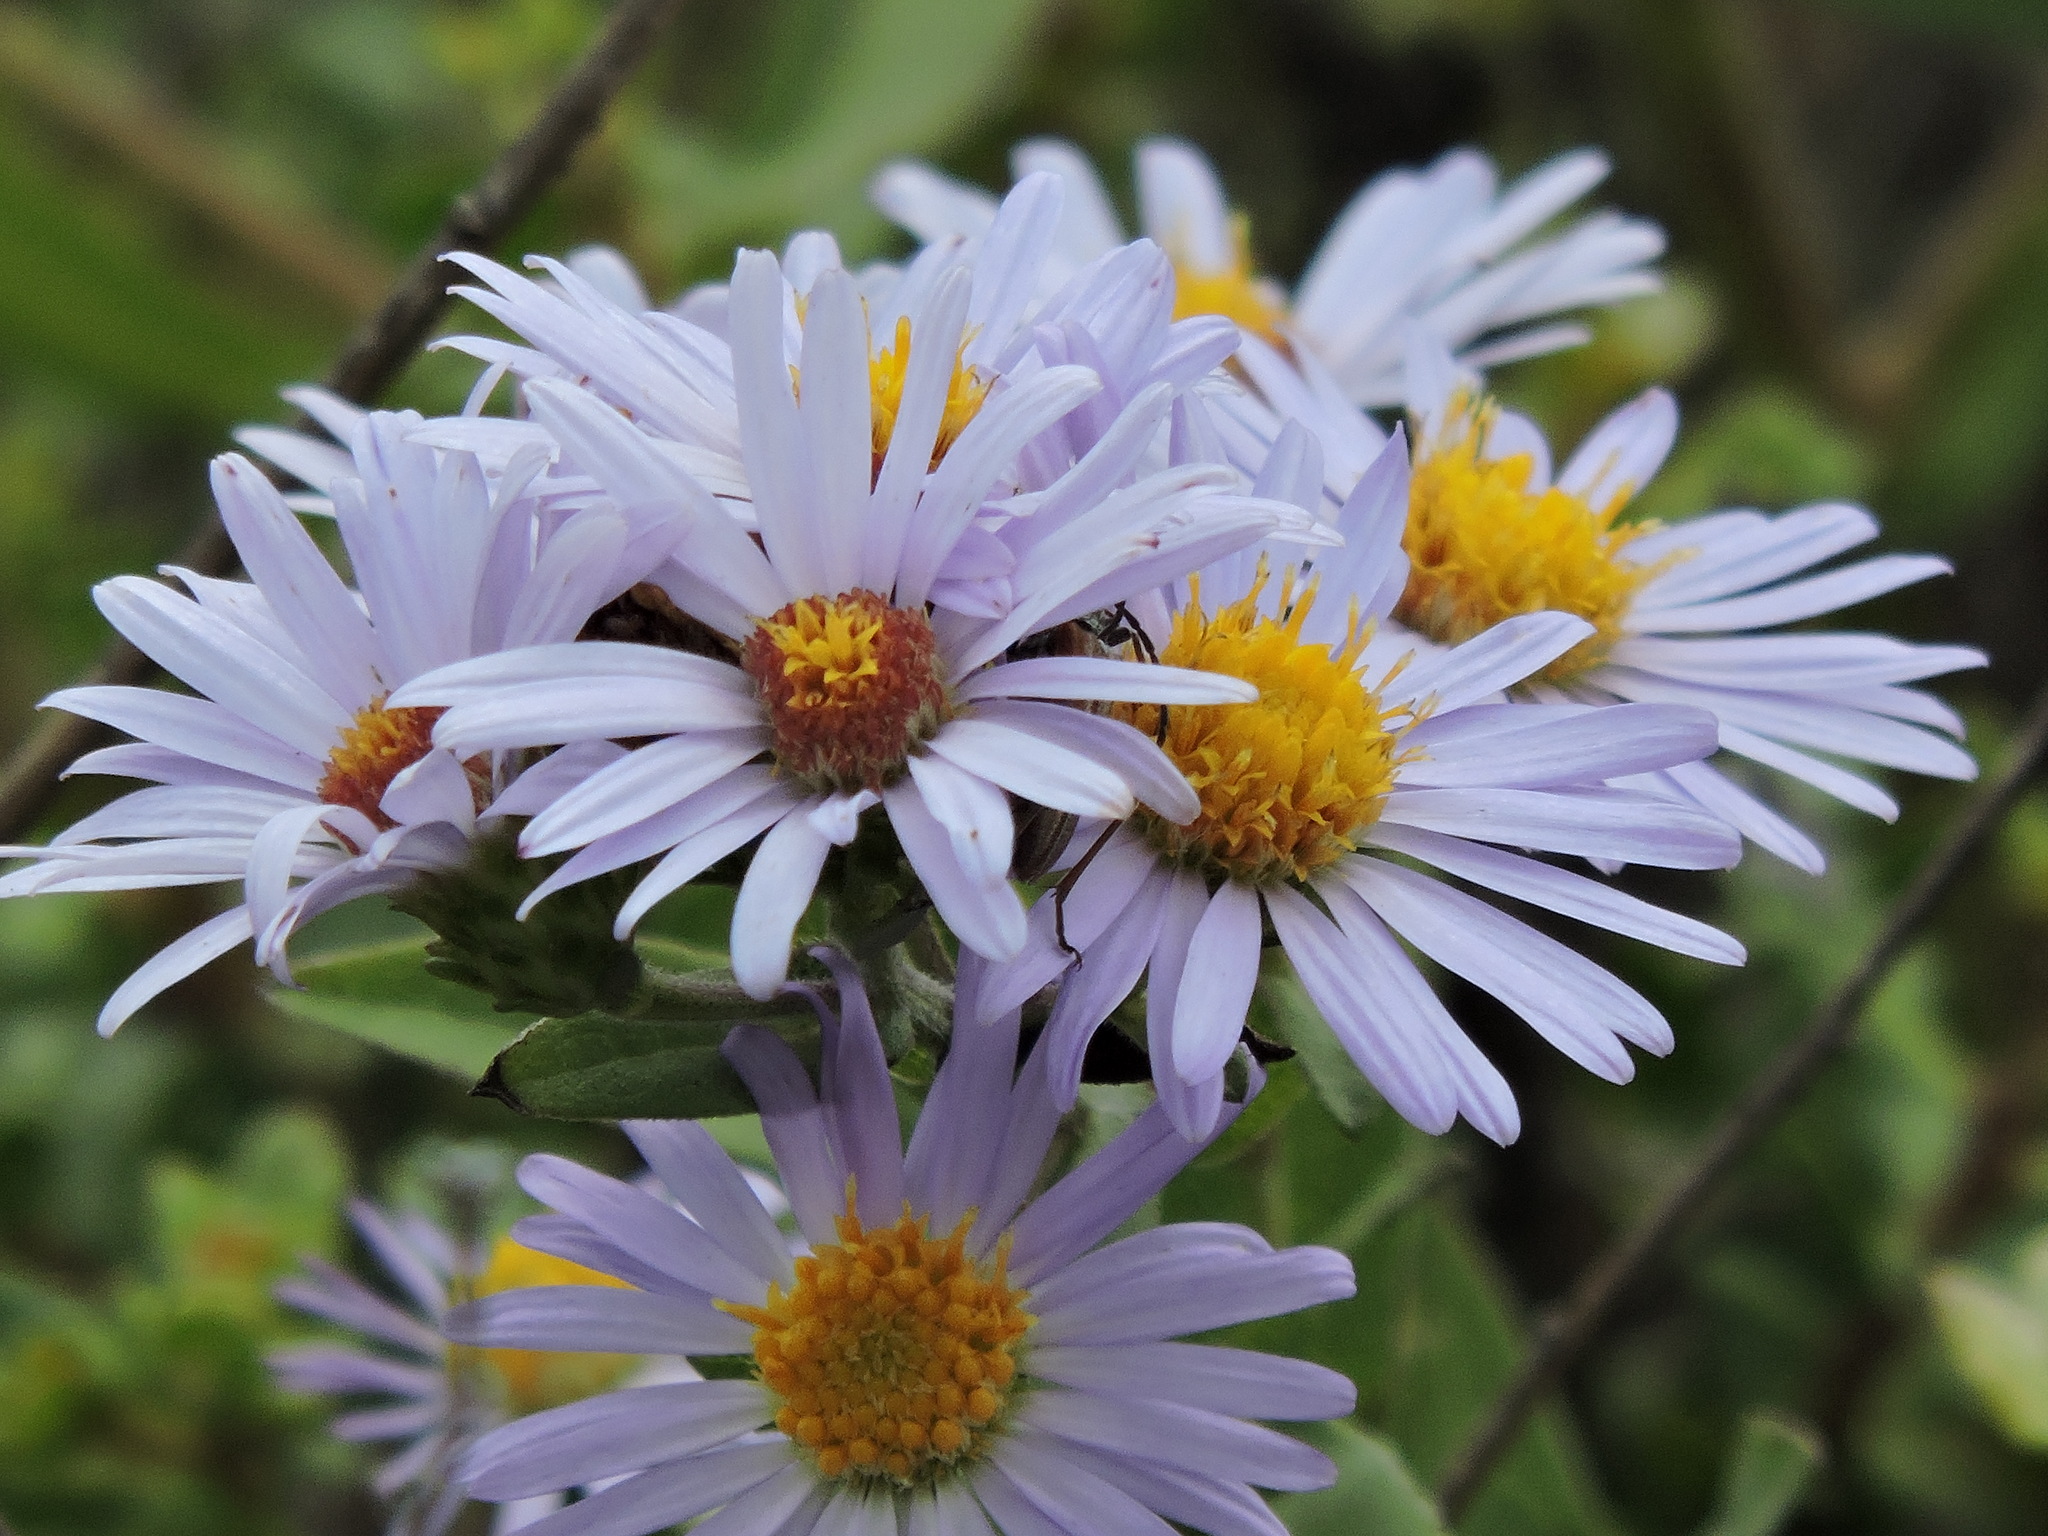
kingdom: Plantae
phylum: Tracheophyta
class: Magnoliopsida
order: Asterales
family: Asteraceae
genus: Symphyotrichum
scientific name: Symphyotrichum chilense
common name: Pacific aster
